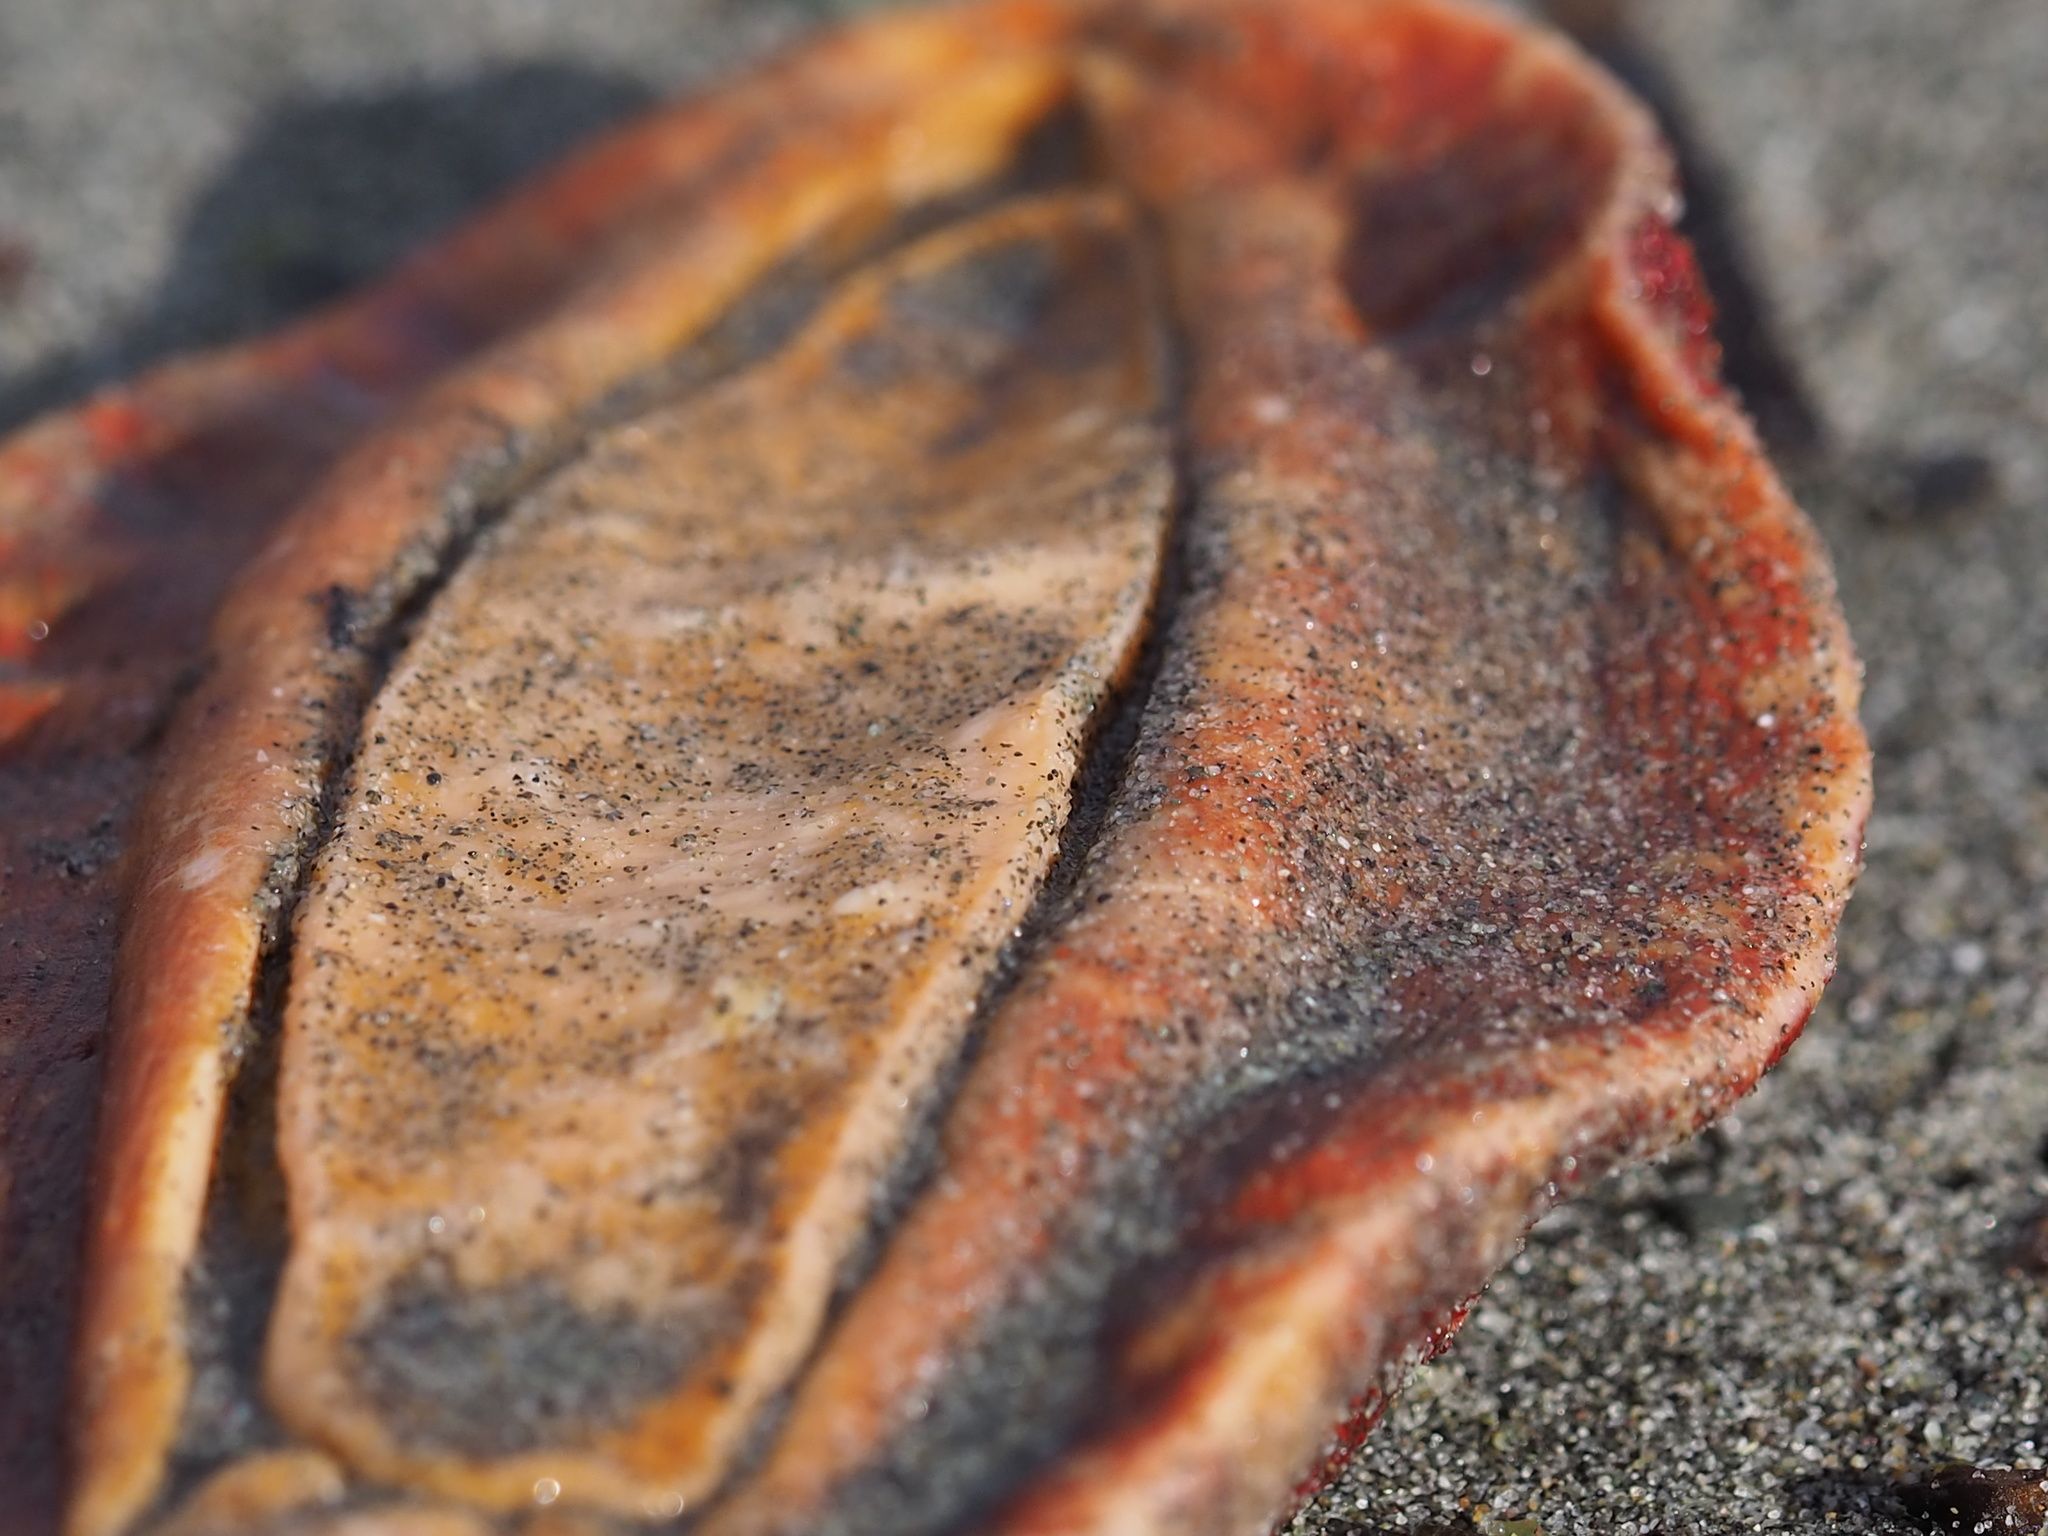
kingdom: Animalia
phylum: Mollusca
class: Polyplacophora
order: Chitonida
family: Acanthochitonidae
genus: Cryptochiton
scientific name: Cryptochiton stelleri
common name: Giant pacific chiton
